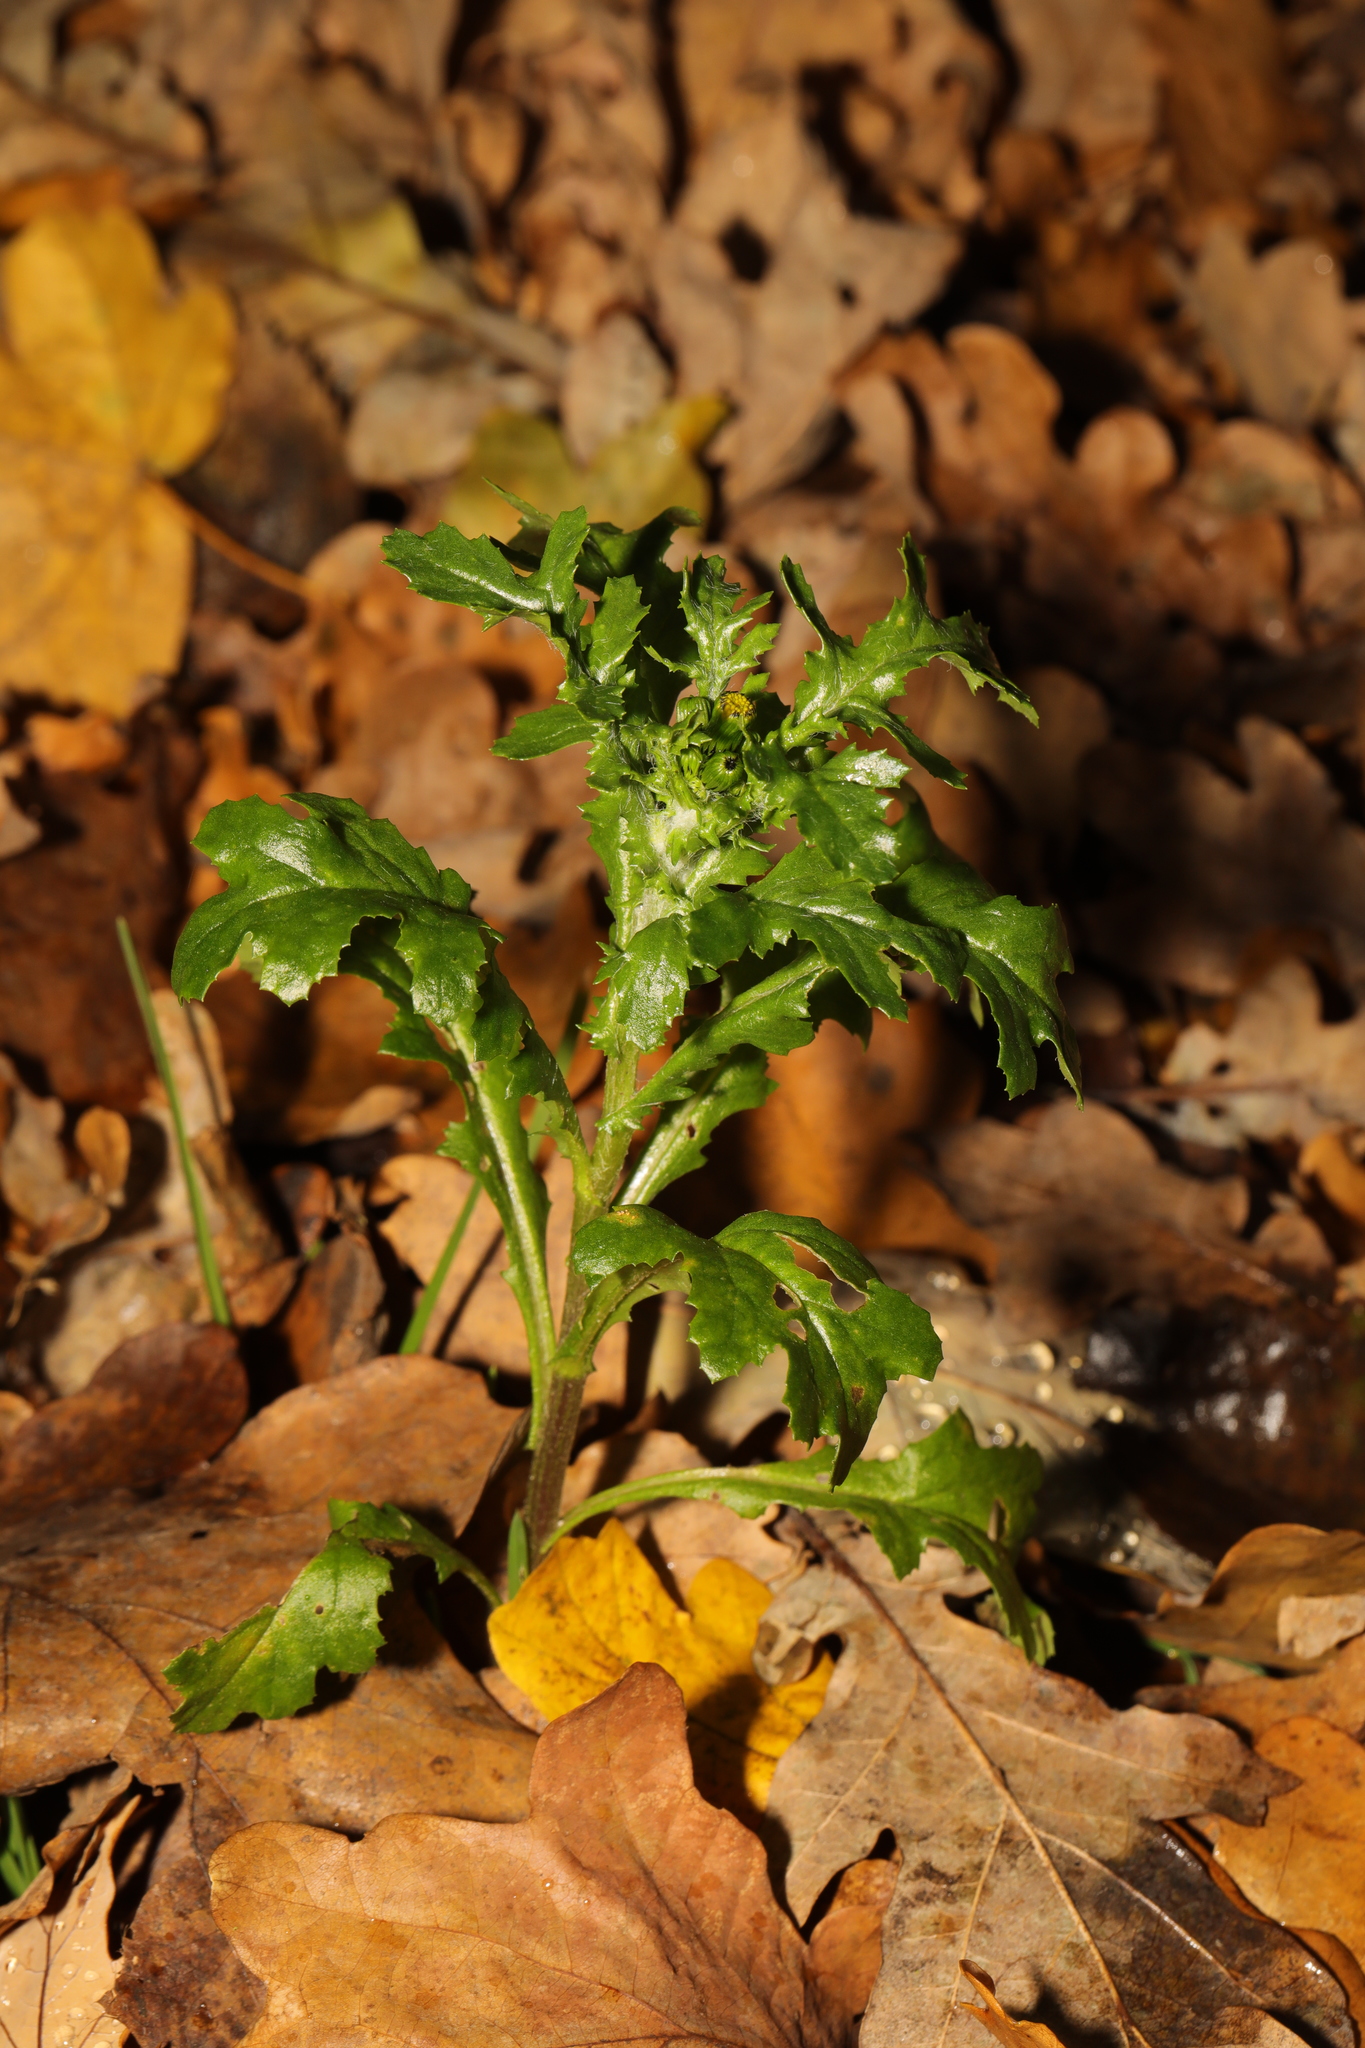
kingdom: Plantae
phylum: Tracheophyta
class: Magnoliopsida
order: Asterales
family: Asteraceae
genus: Senecio
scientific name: Senecio vulgaris
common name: Old-man-in-the-spring
